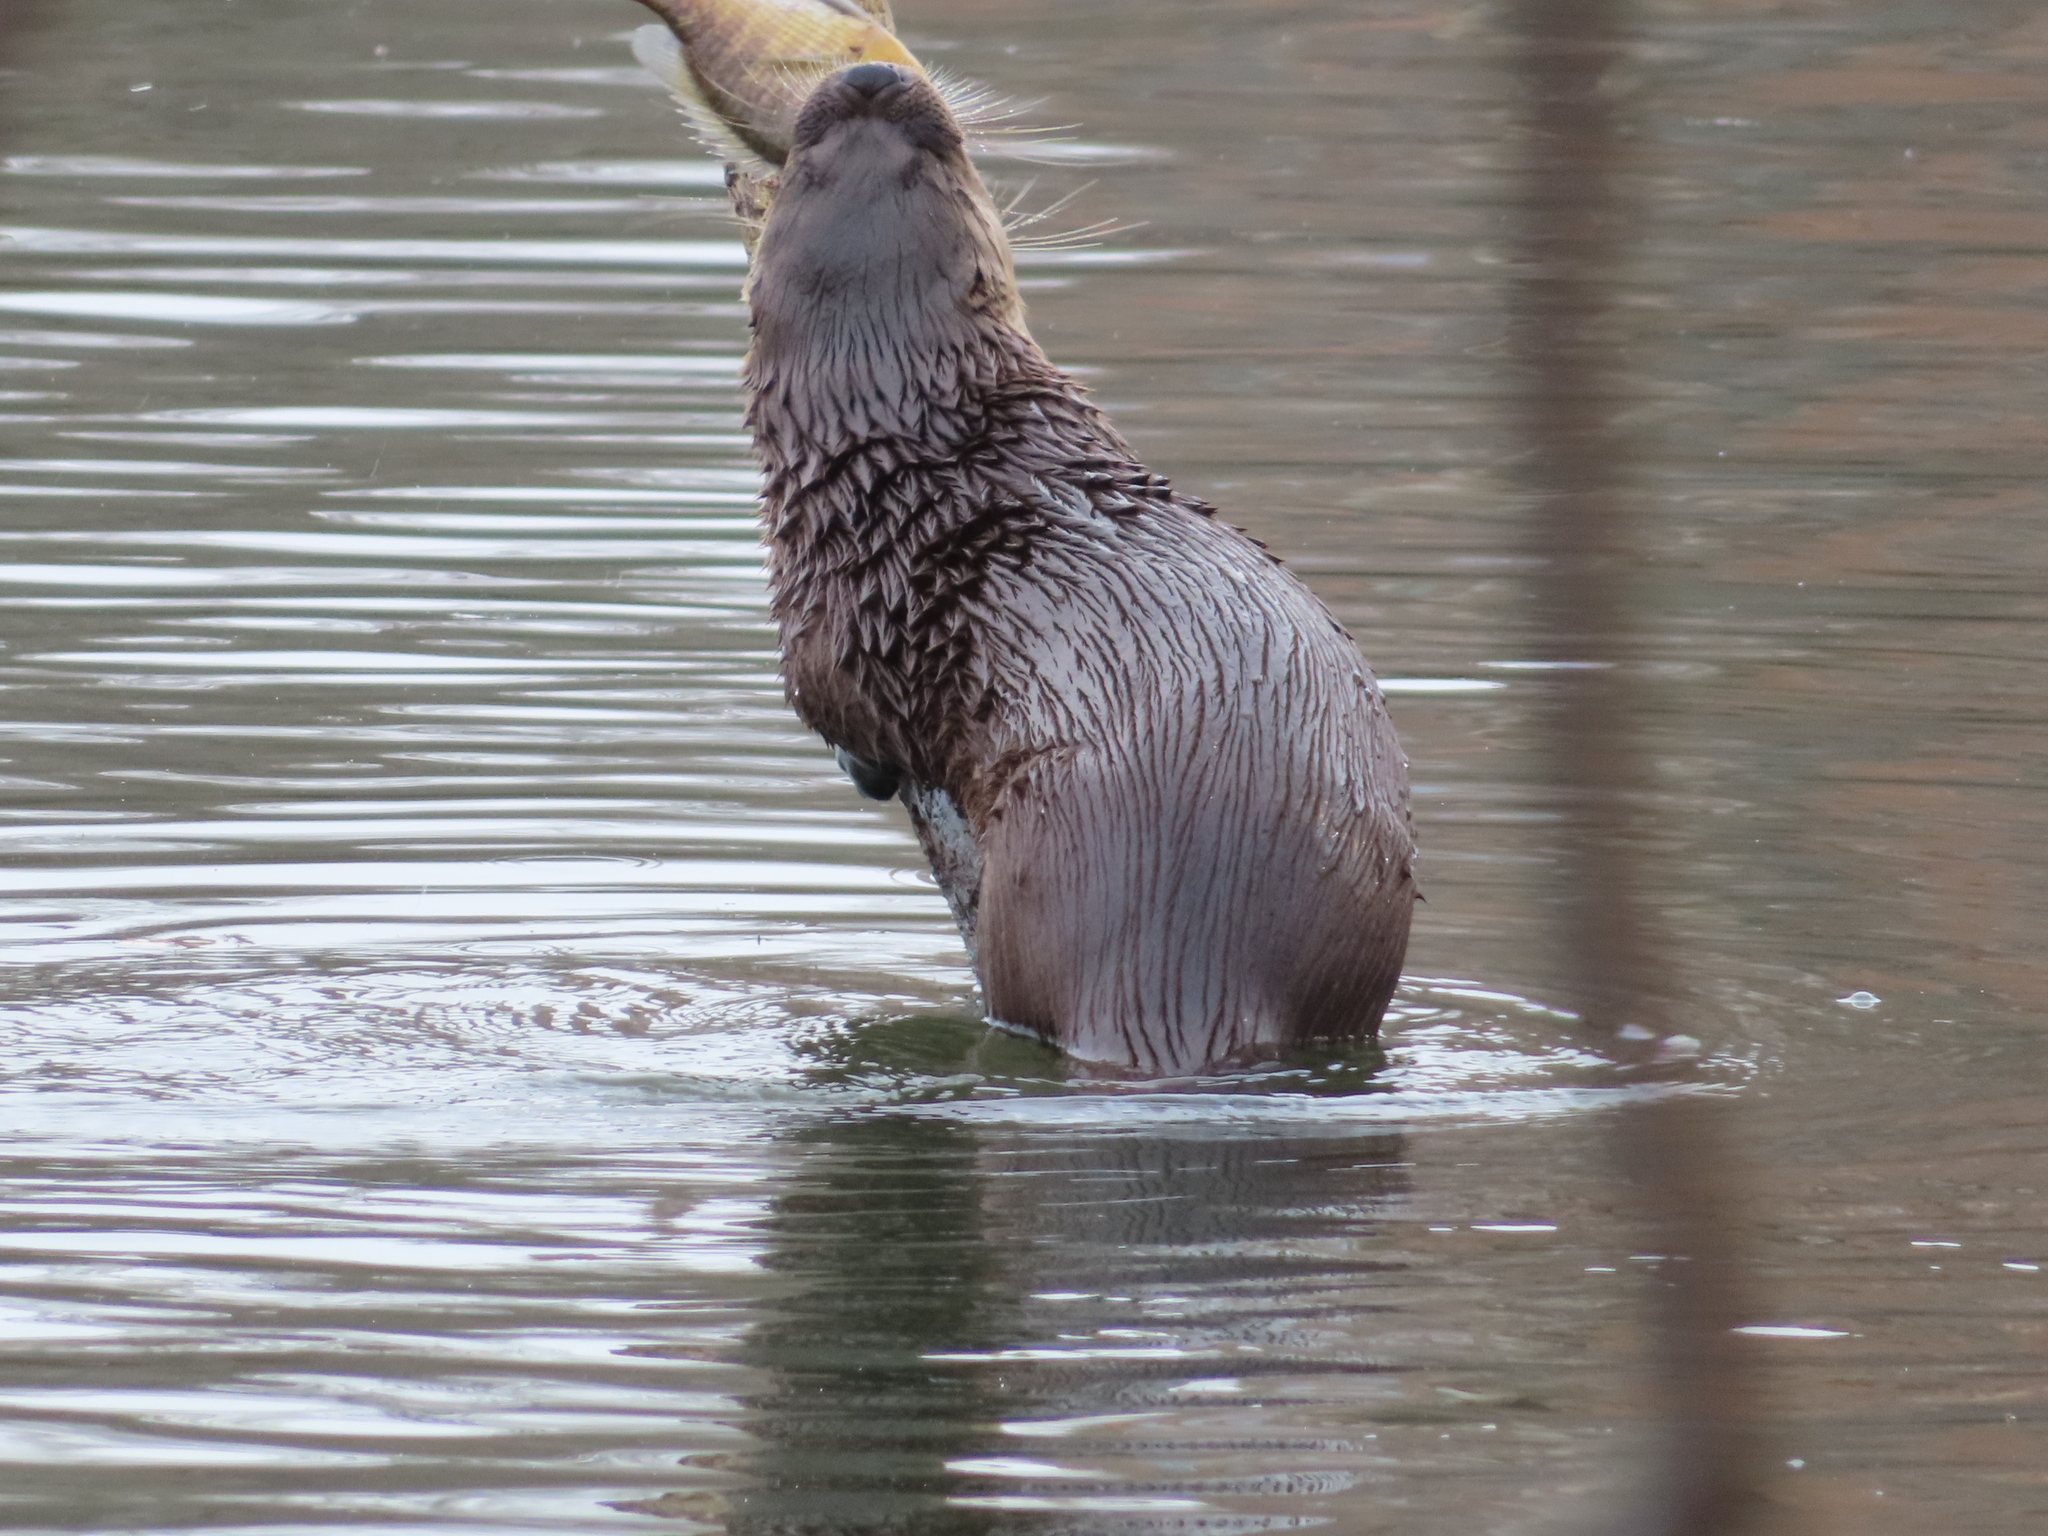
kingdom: Animalia
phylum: Chordata
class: Mammalia
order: Carnivora
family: Mustelidae
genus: Lontra
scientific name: Lontra canadensis
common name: North american river otter
